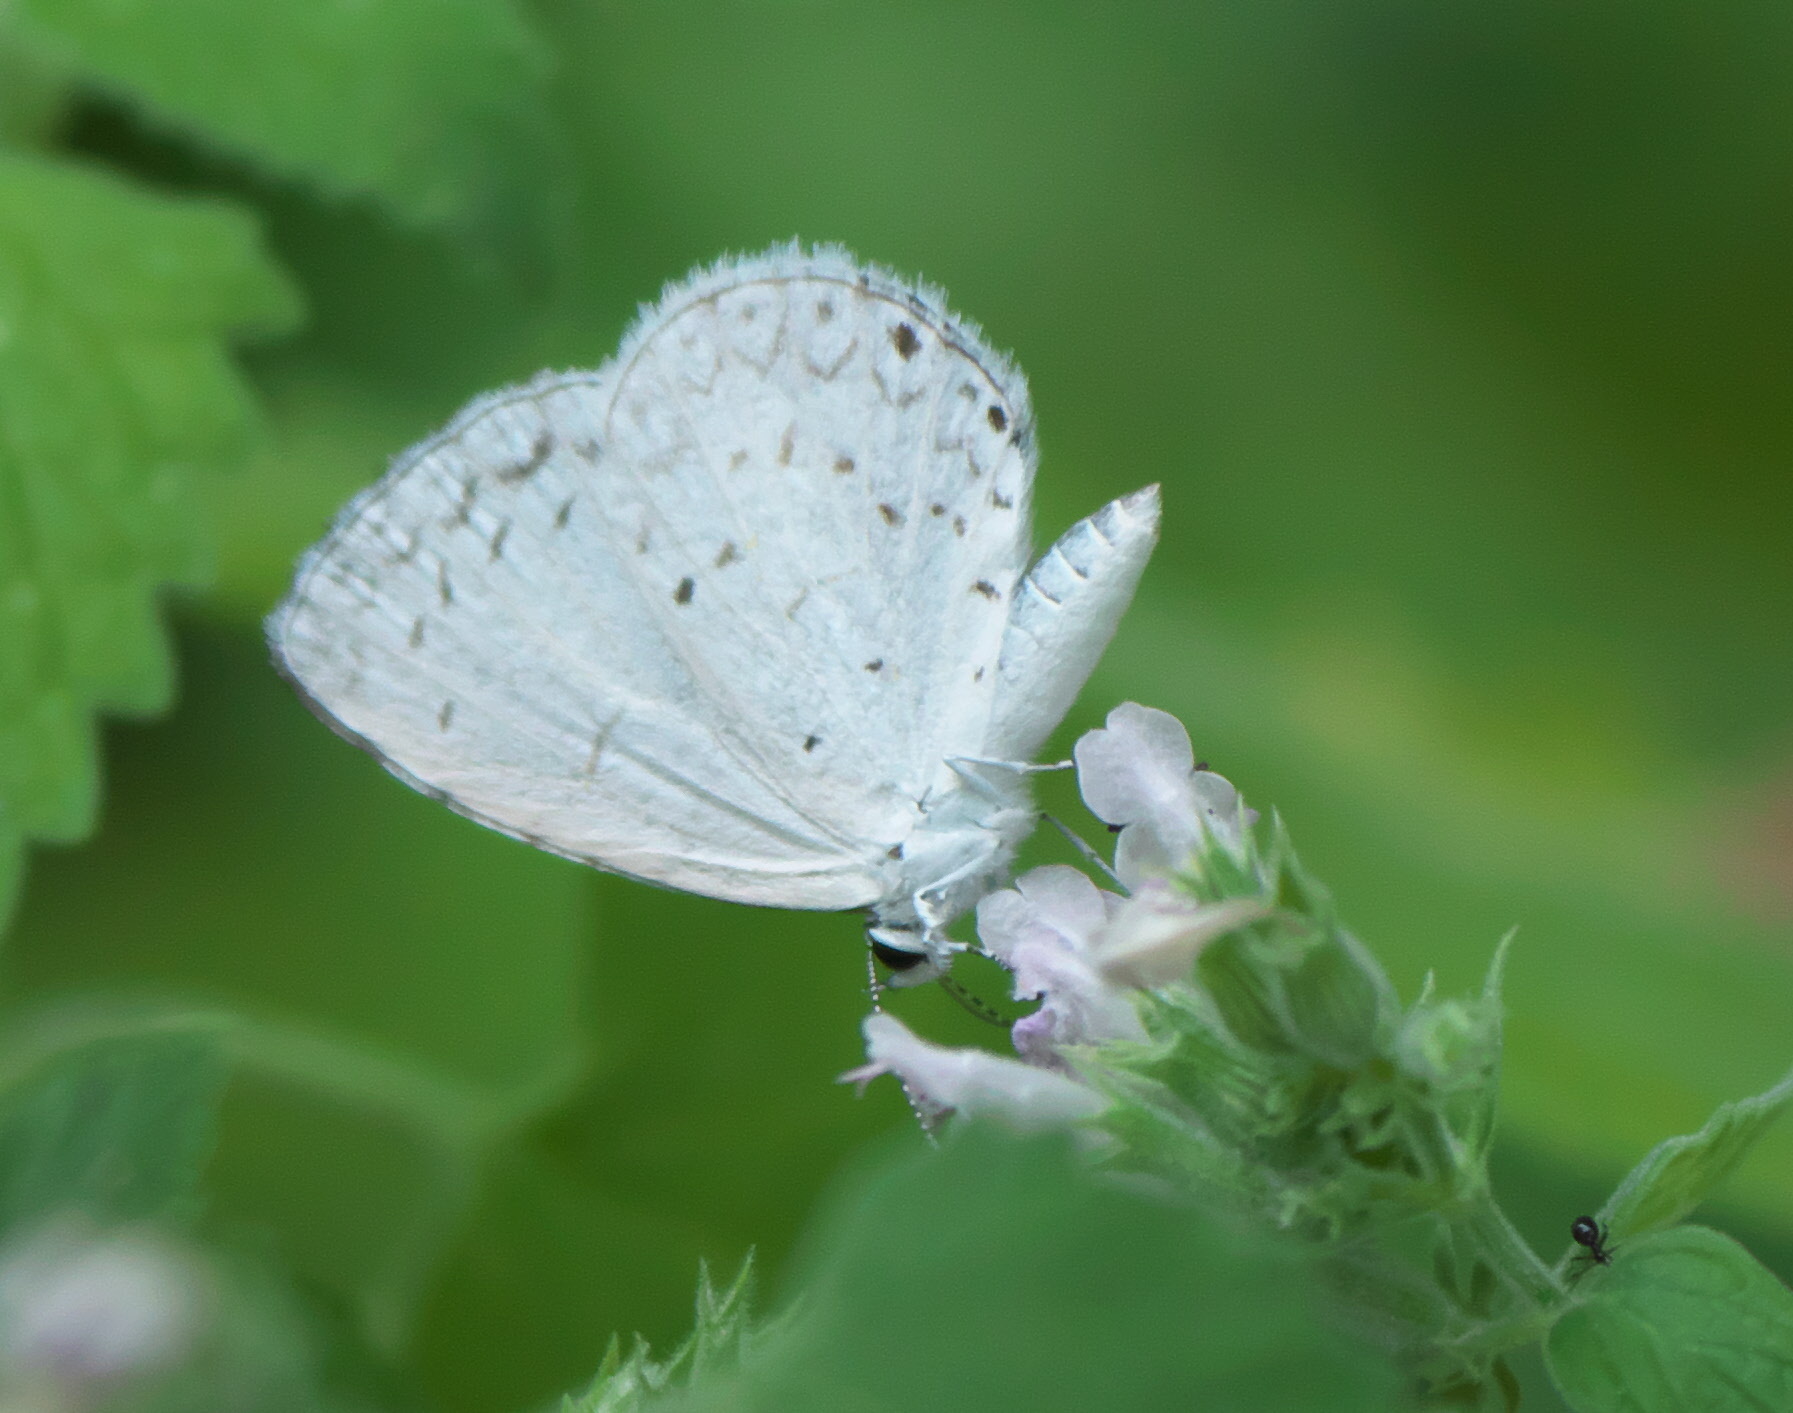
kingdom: Animalia
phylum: Arthropoda
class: Insecta
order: Lepidoptera
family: Lycaenidae
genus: Cyaniris
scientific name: Cyaniris neglecta
